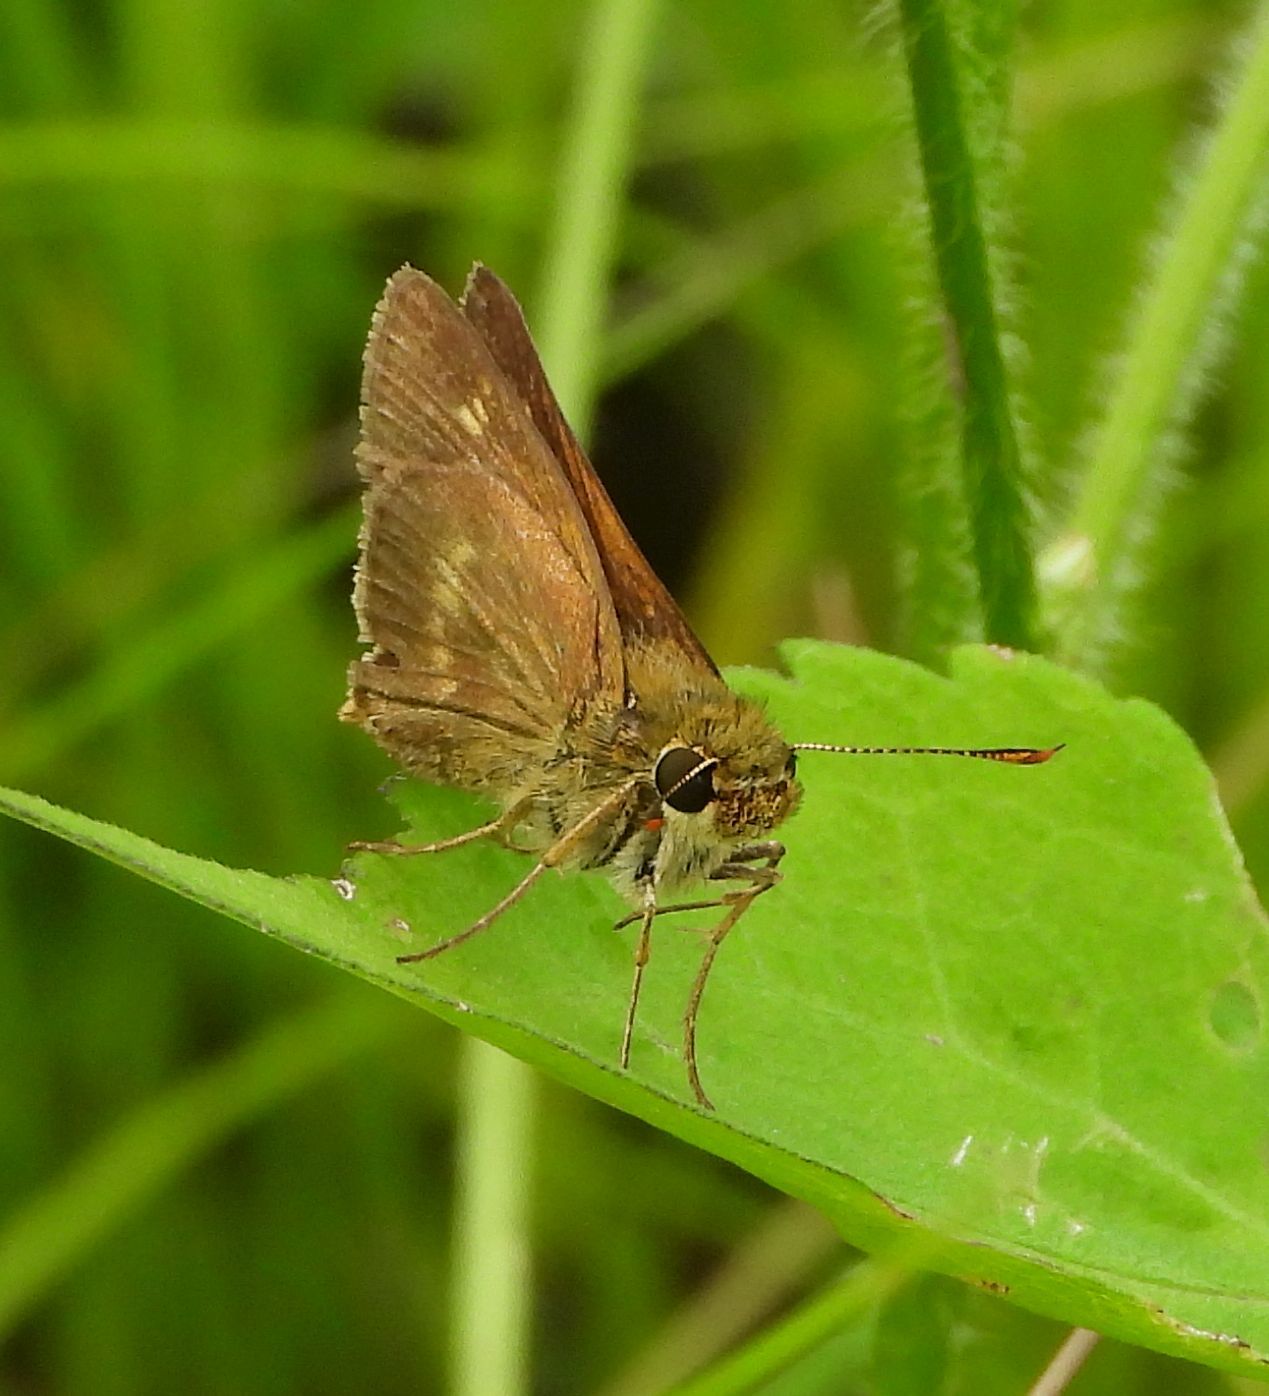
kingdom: Animalia
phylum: Arthropoda
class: Insecta
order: Lepidoptera
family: Hesperiidae
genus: Polites
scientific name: Polites egeremet
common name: Northern broken-dash
